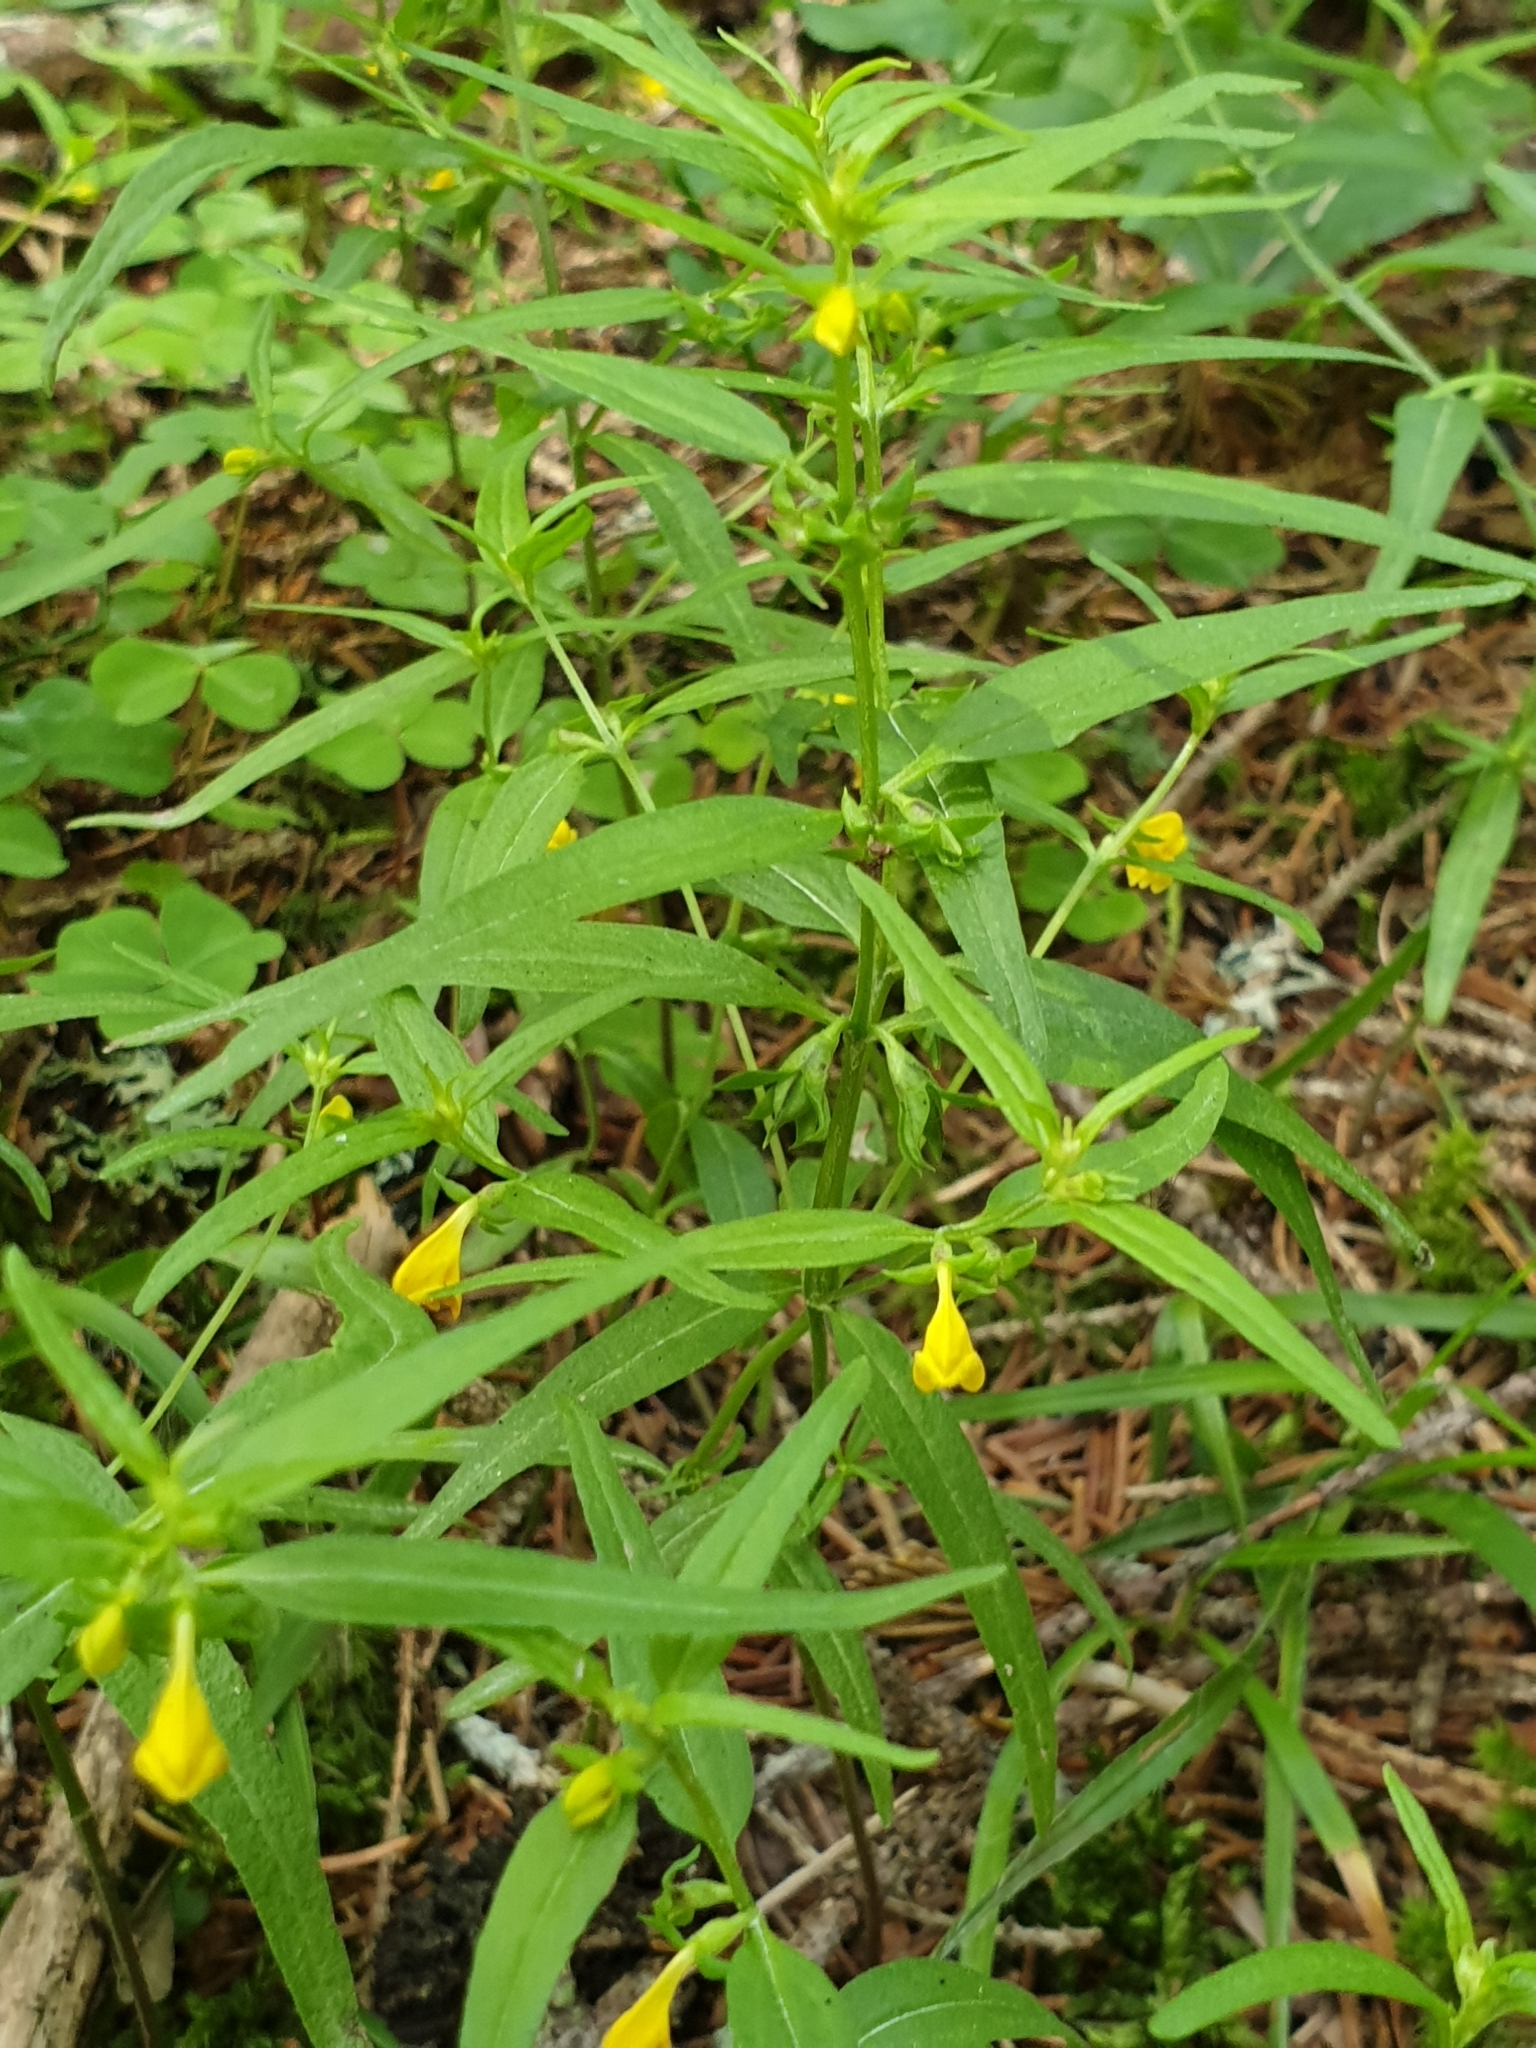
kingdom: Plantae
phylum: Tracheophyta
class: Magnoliopsida
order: Lamiales
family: Orobanchaceae
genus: Melampyrum
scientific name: Melampyrum sylvaticum
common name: Small cow-wheat
